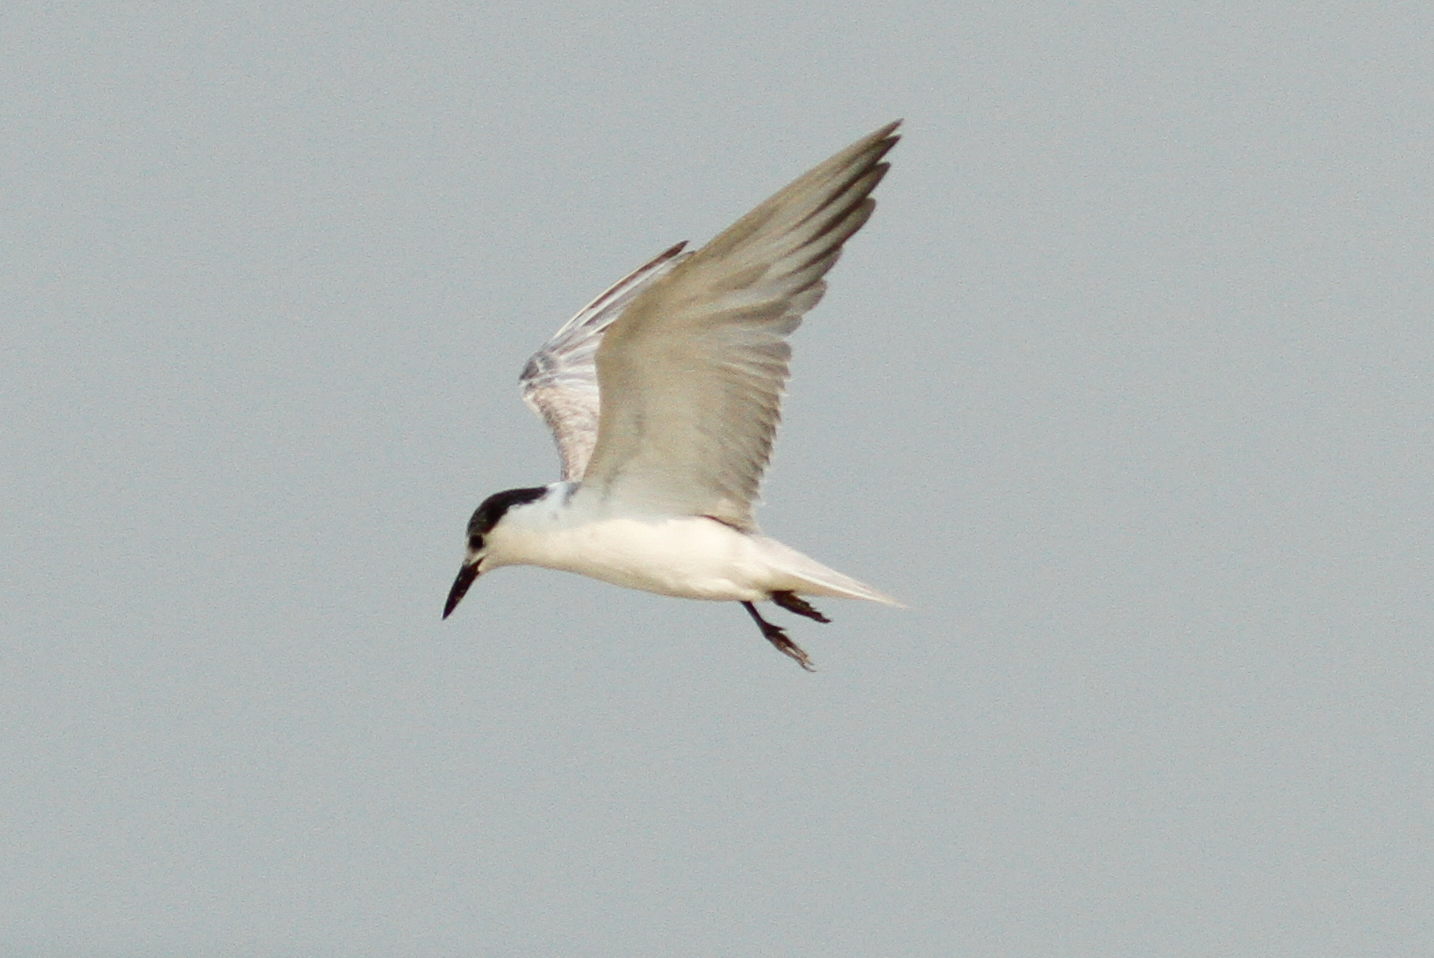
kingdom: Animalia
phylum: Chordata
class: Aves
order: Charadriiformes
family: Laridae
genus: Chlidonias
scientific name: Chlidonias hybrida
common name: Whiskered tern
